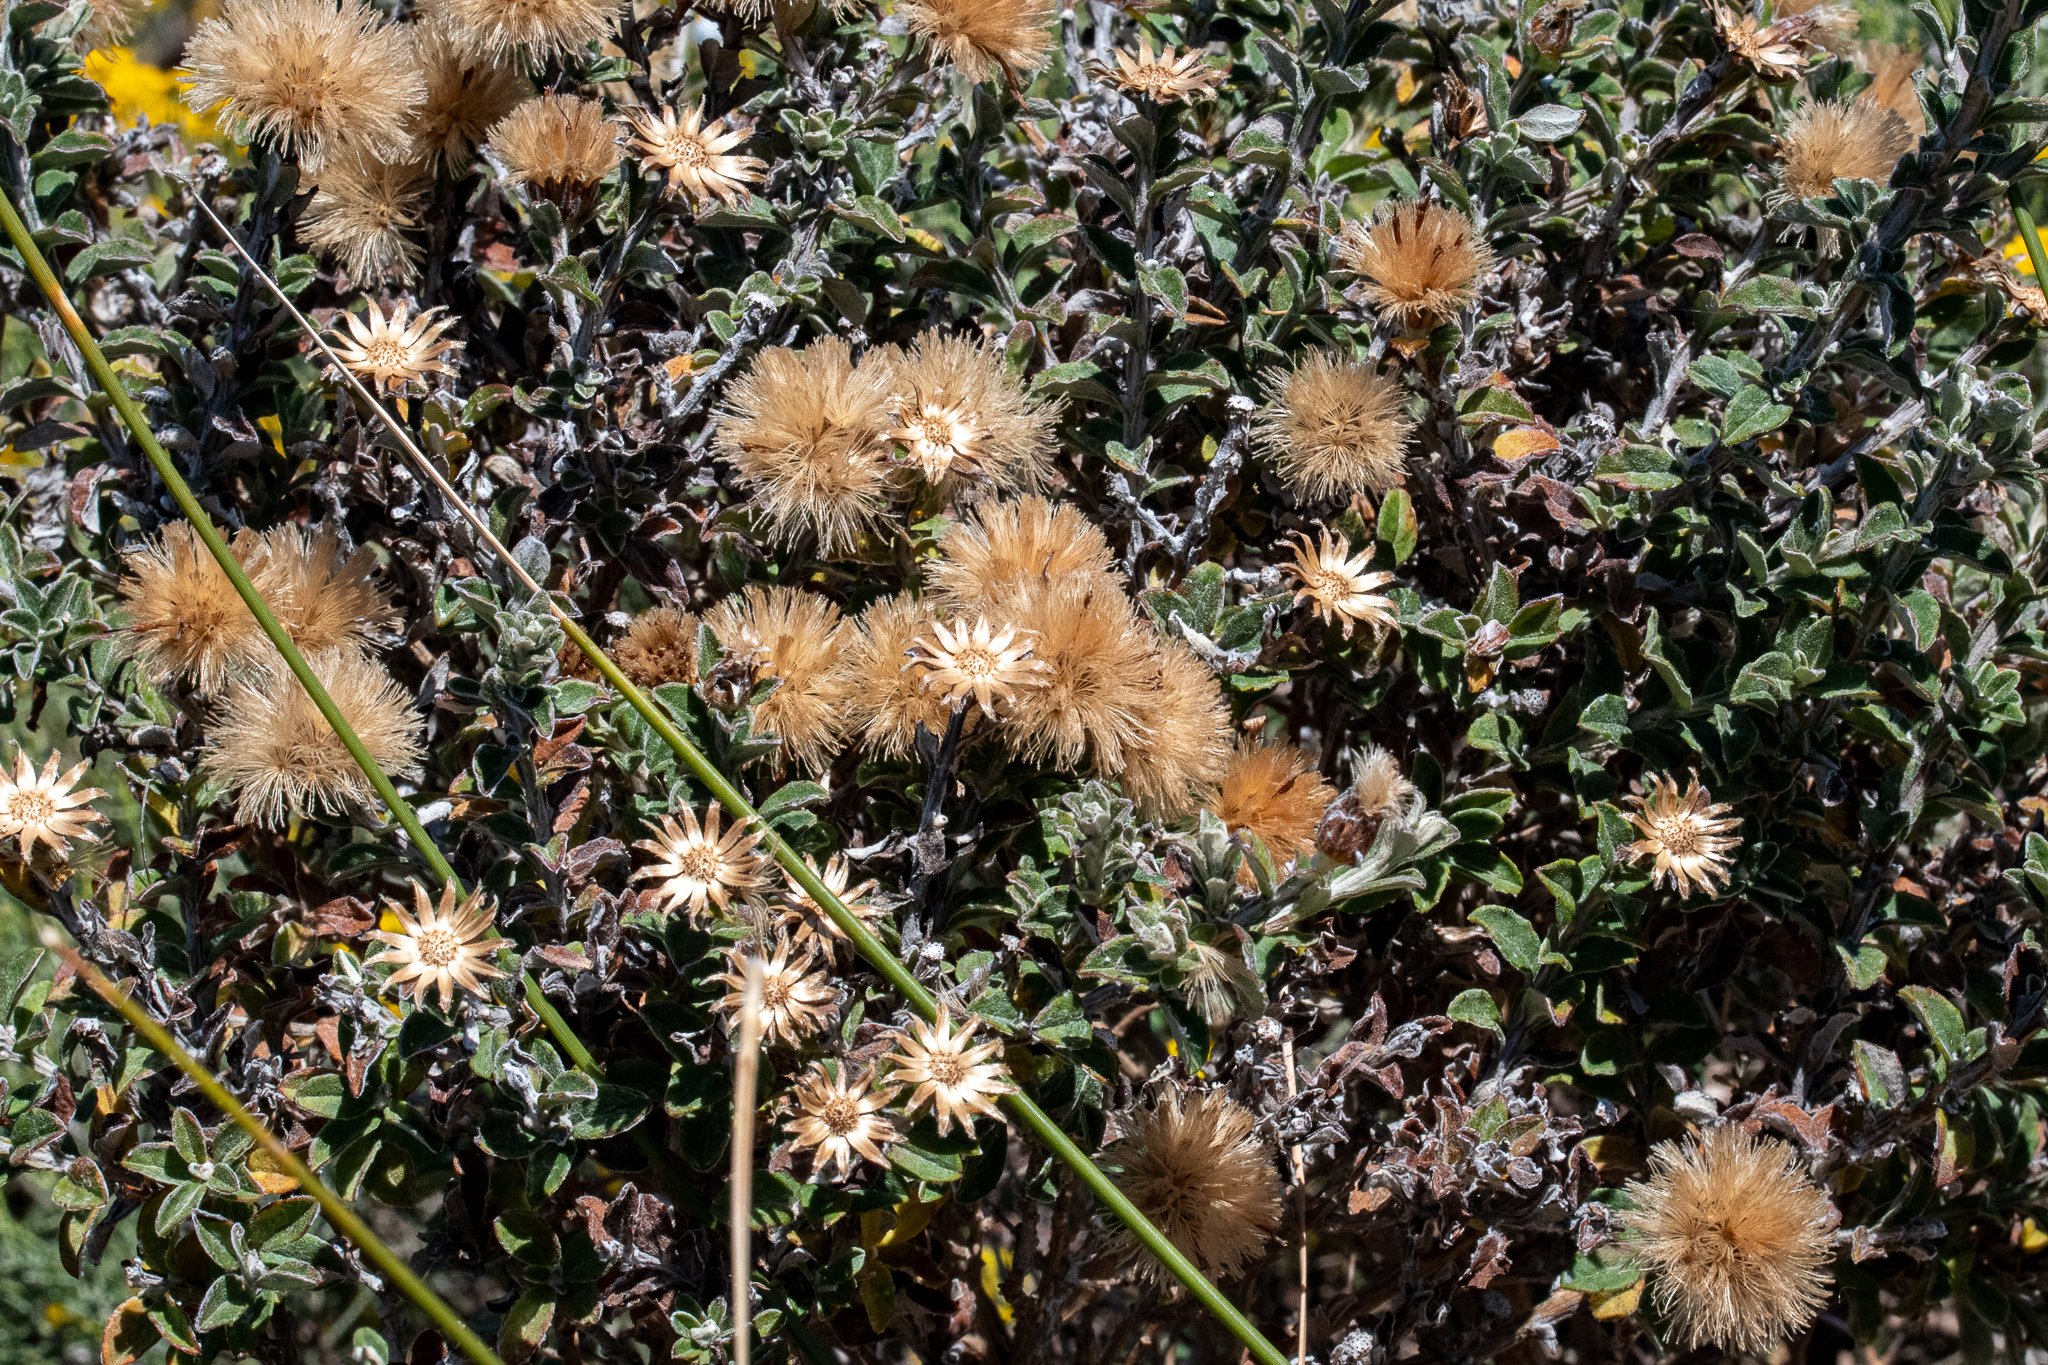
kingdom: Plantae
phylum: Tracheophyta
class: Magnoliopsida
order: Asterales
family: Asteraceae
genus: Printzia
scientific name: Printzia polifolia
